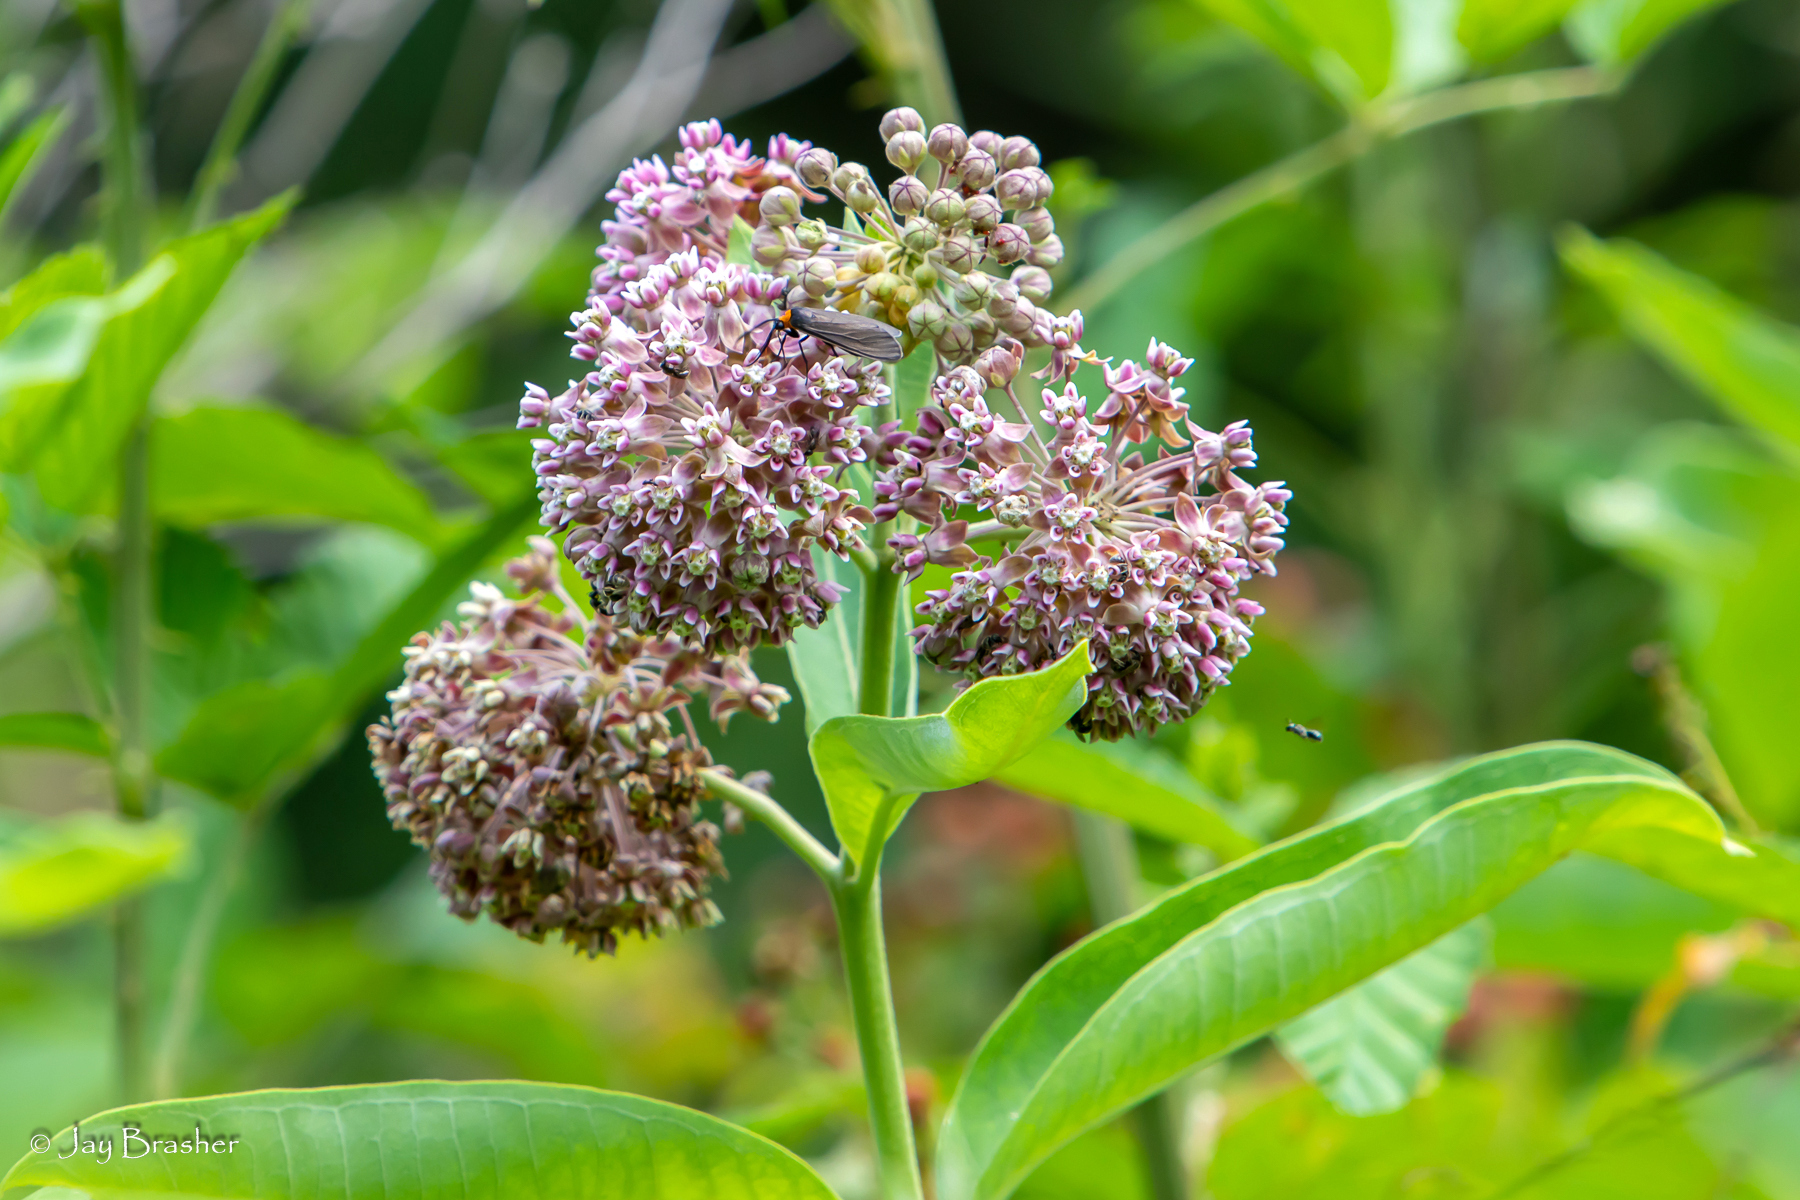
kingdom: Plantae
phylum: Tracheophyta
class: Magnoliopsida
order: Gentianales
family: Apocynaceae
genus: Asclepias
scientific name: Asclepias syriaca
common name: Common milkweed
